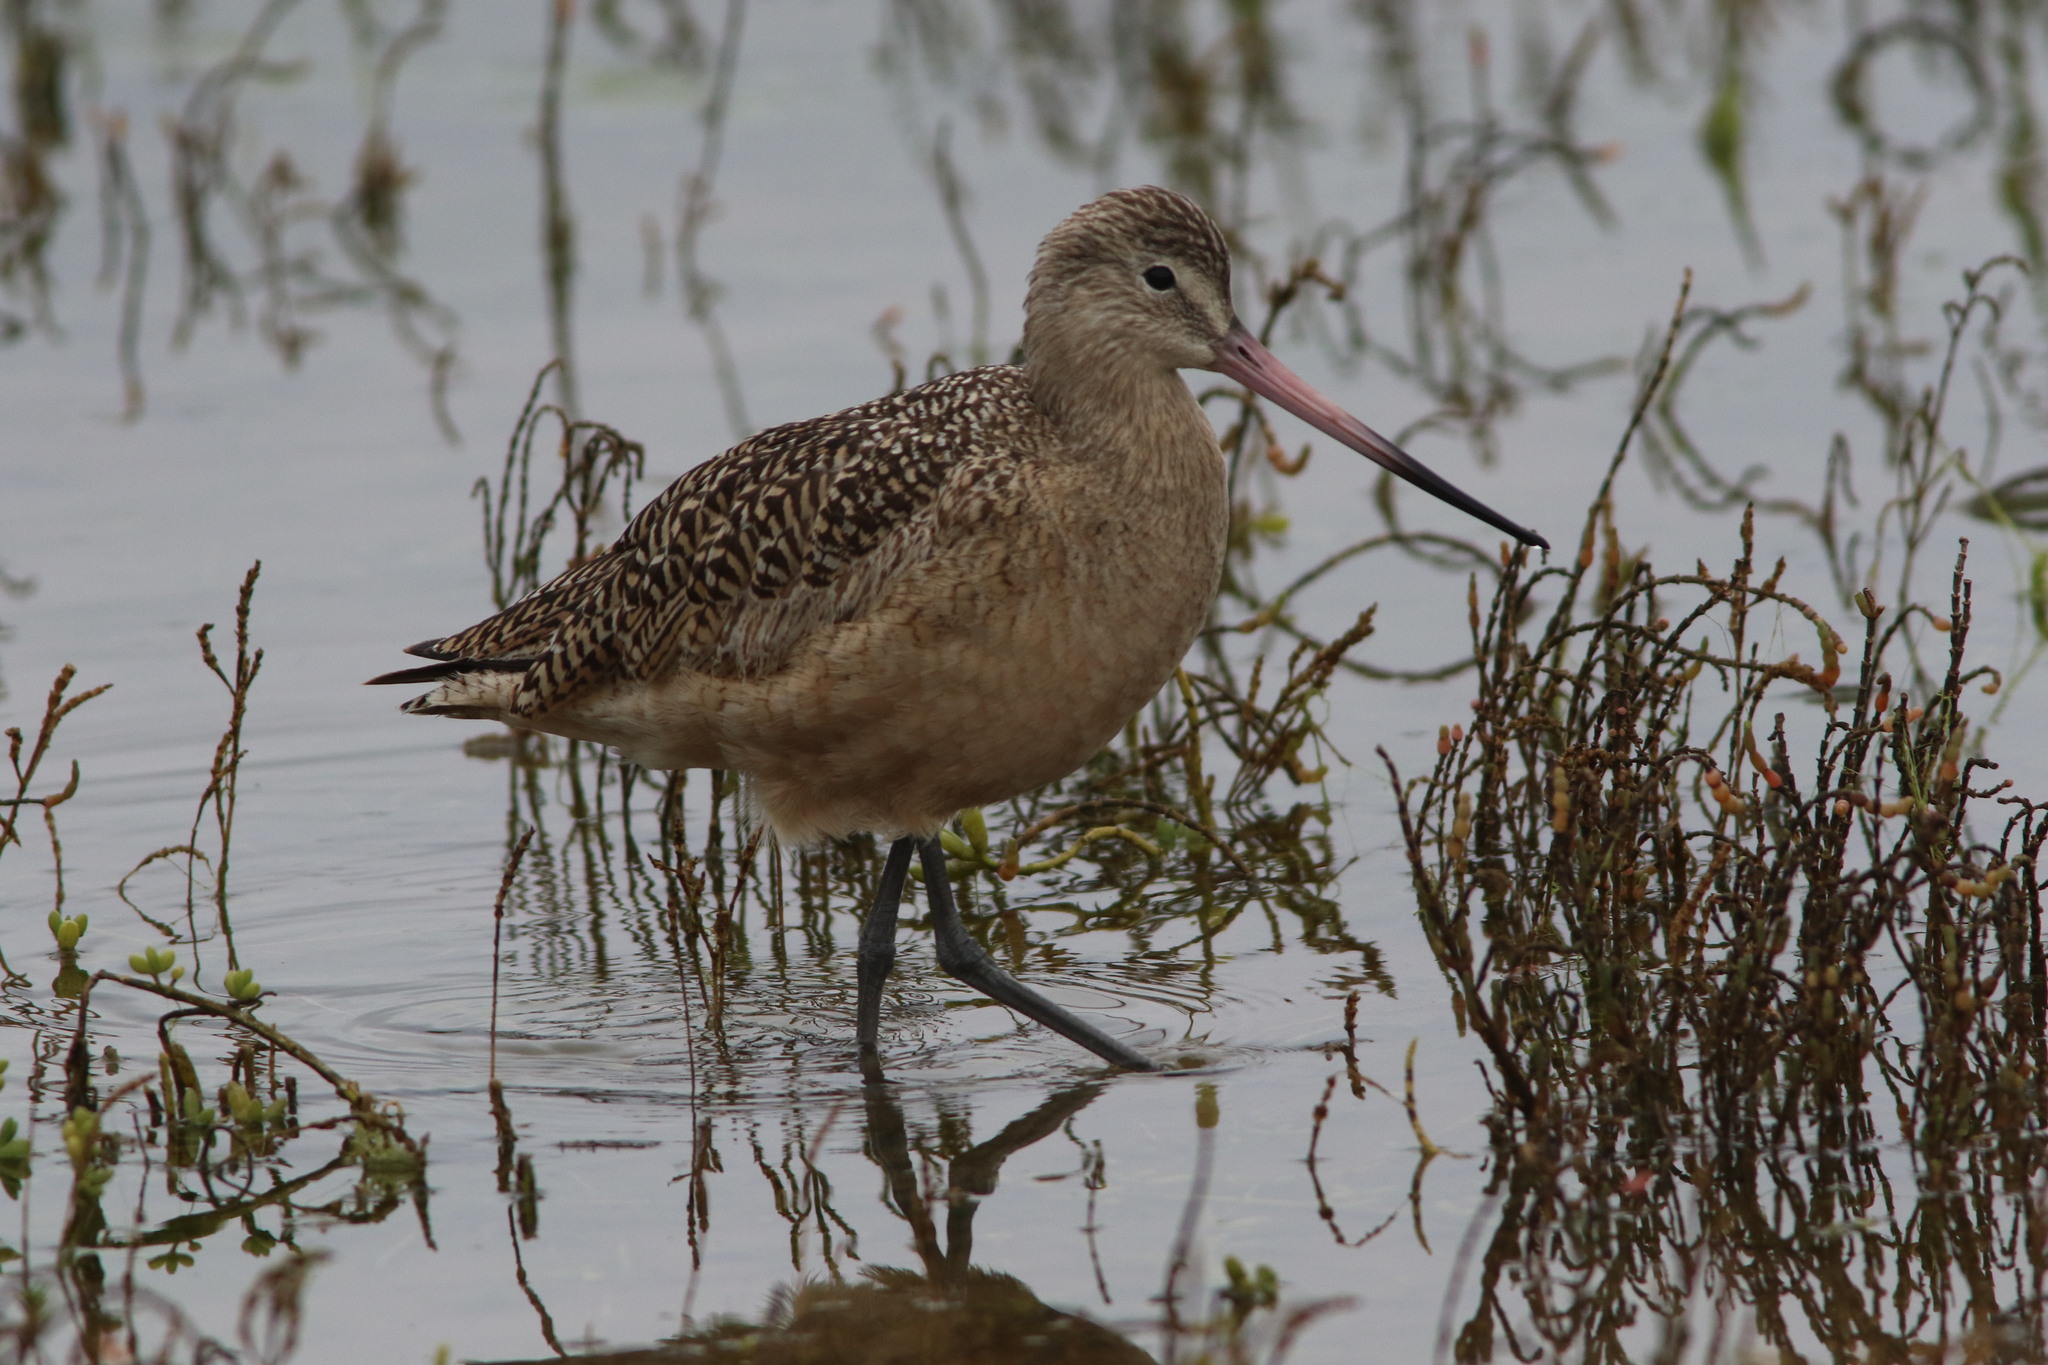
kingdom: Animalia
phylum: Chordata
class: Aves
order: Charadriiformes
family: Scolopacidae
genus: Limosa
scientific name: Limosa fedoa
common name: Marbled godwit
